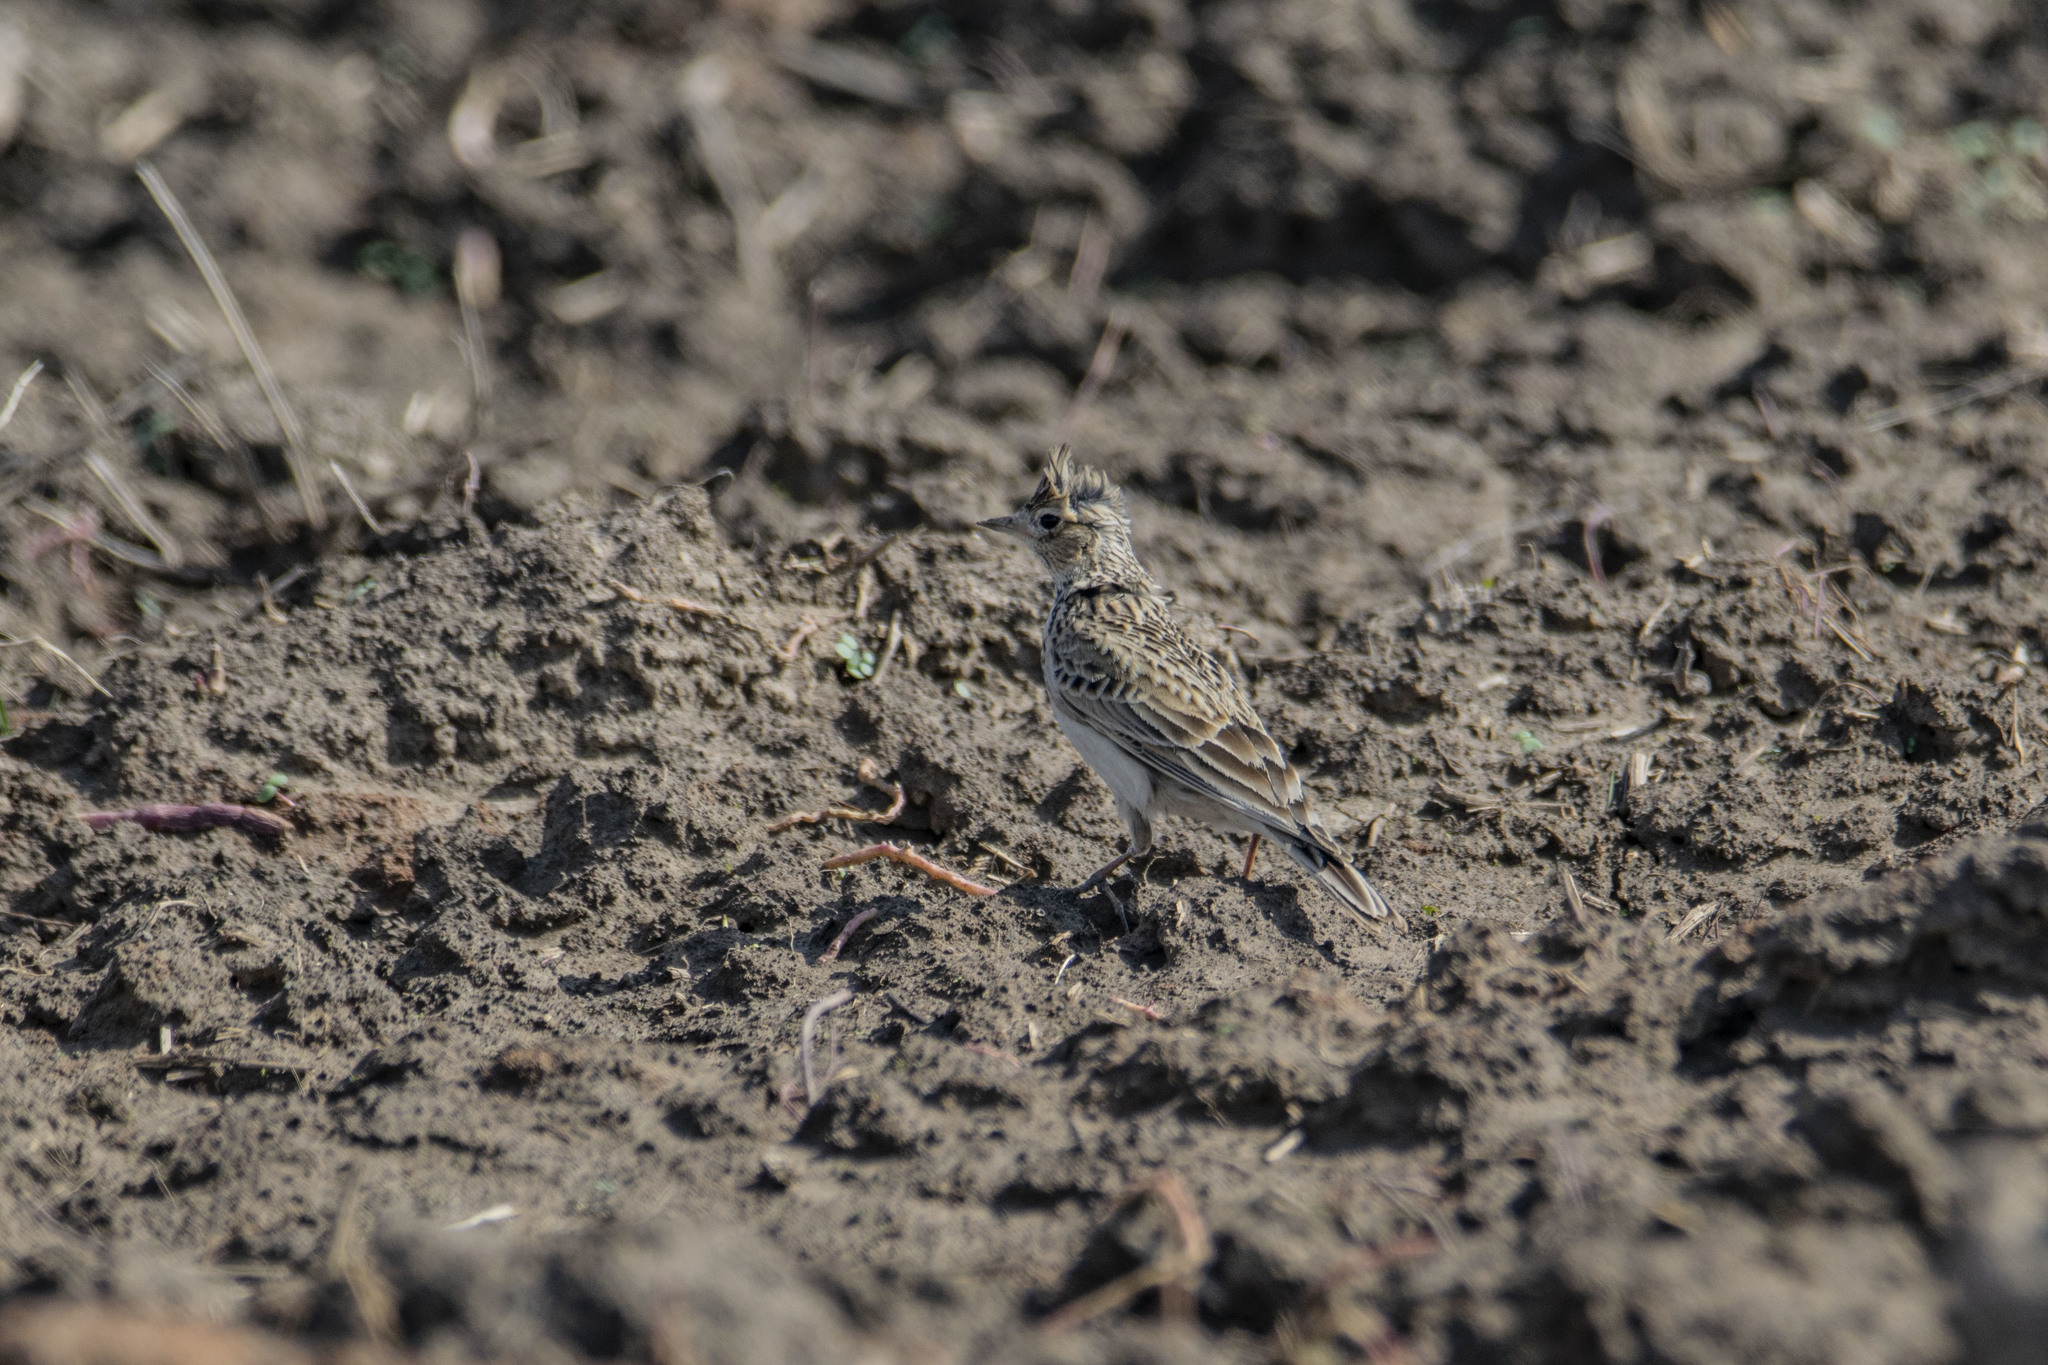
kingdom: Animalia
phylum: Chordata
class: Aves
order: Passeriformes
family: Alaudidae
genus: Alauda
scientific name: Alauda arvensis
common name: Eurasian skylark
